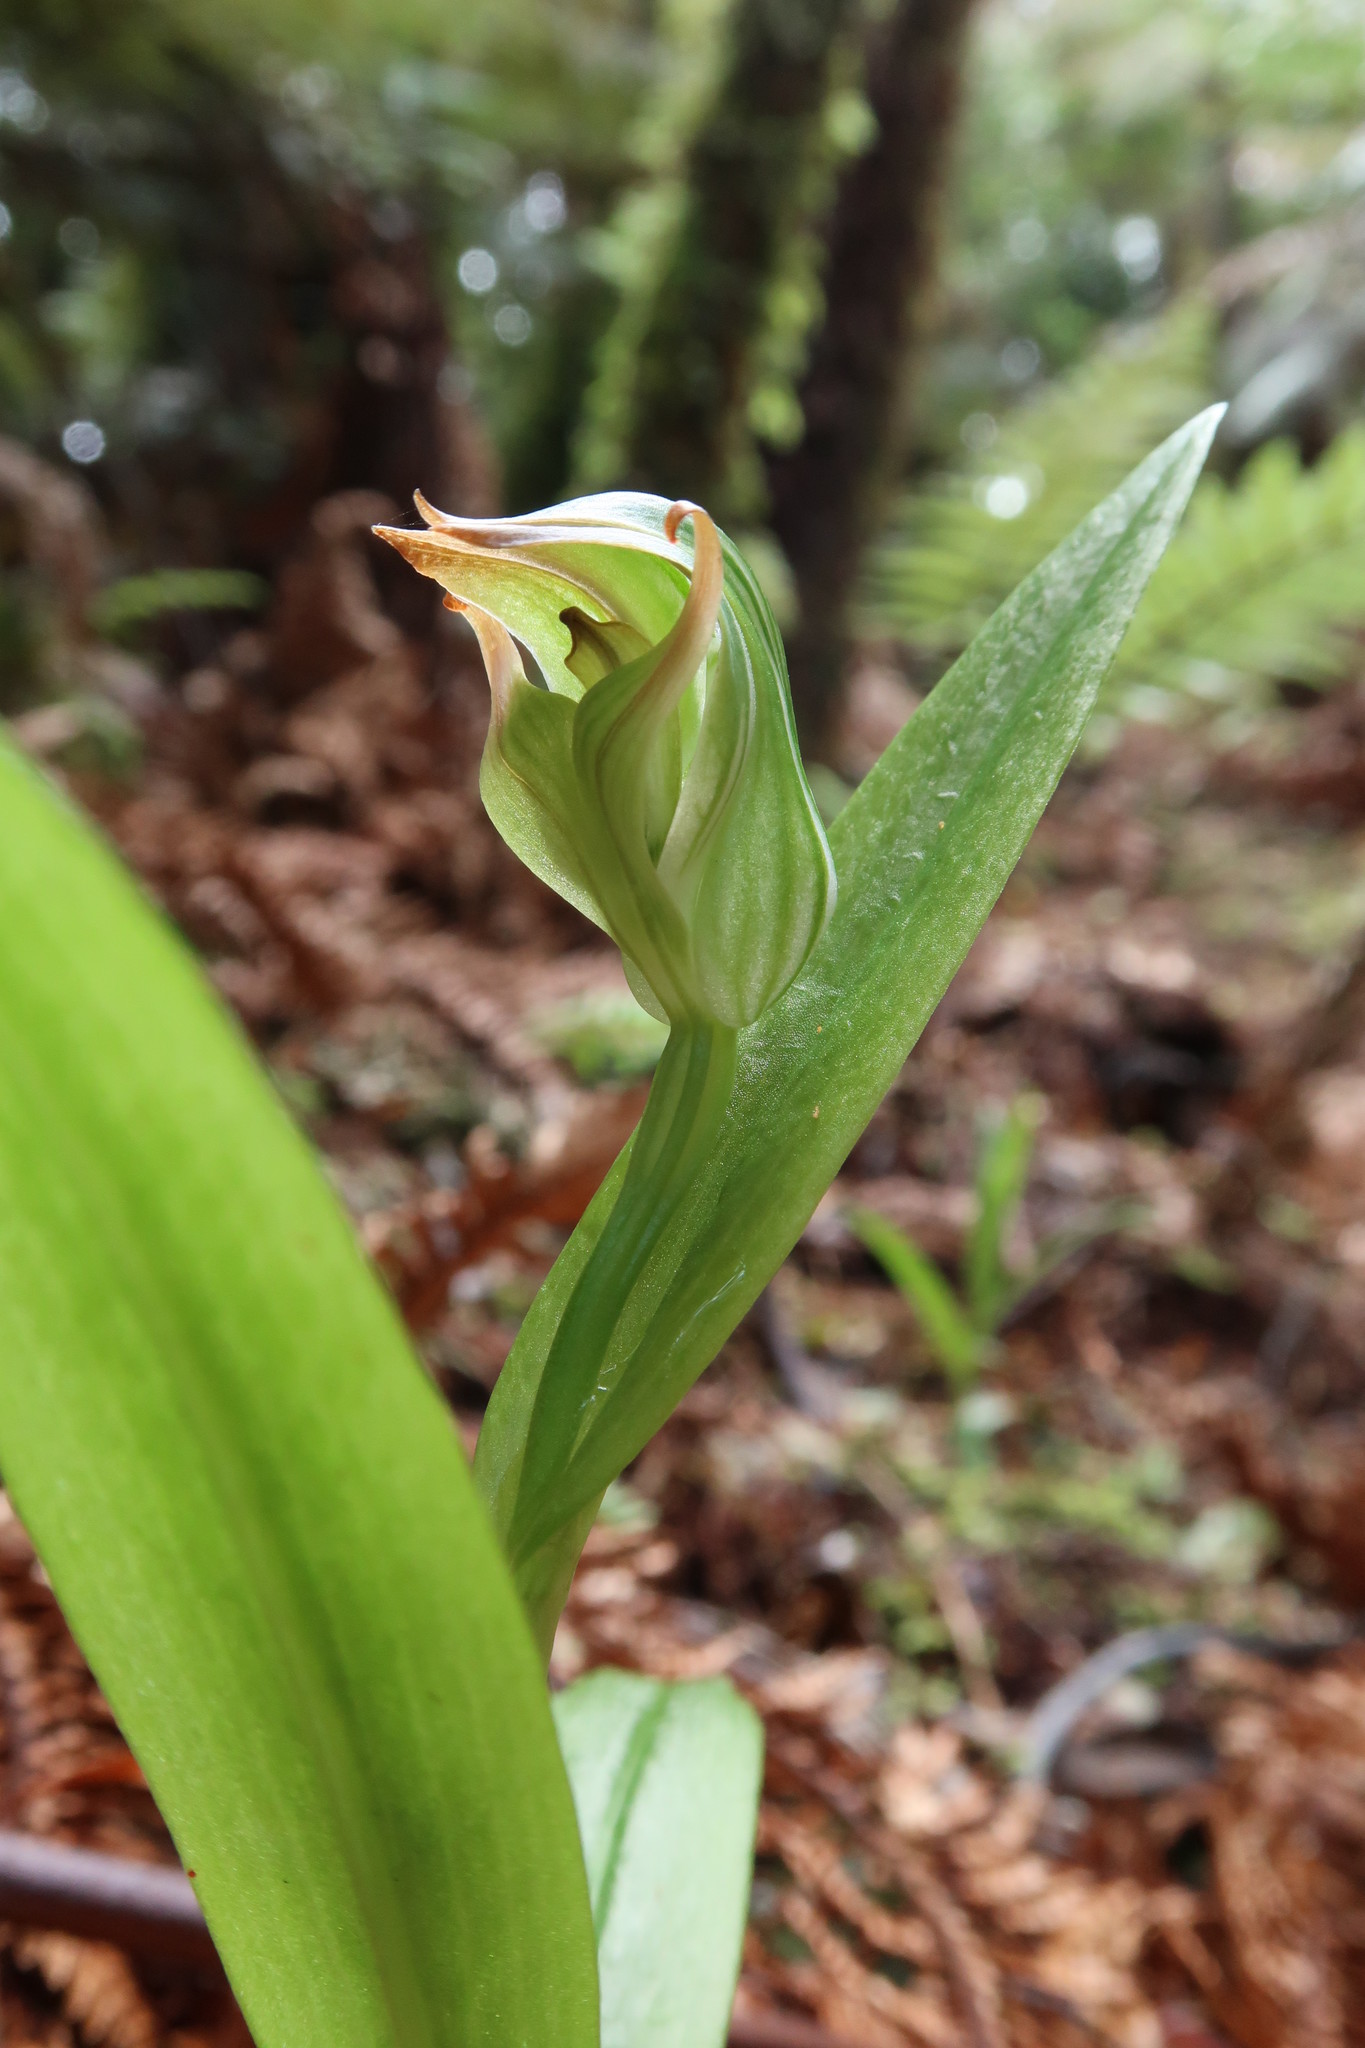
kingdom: Plantae
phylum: Tracheophyta
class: Liliopsida
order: Asparagales
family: Orchidaceae
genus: Pterostylis
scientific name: Pterostylis silvicultrix
